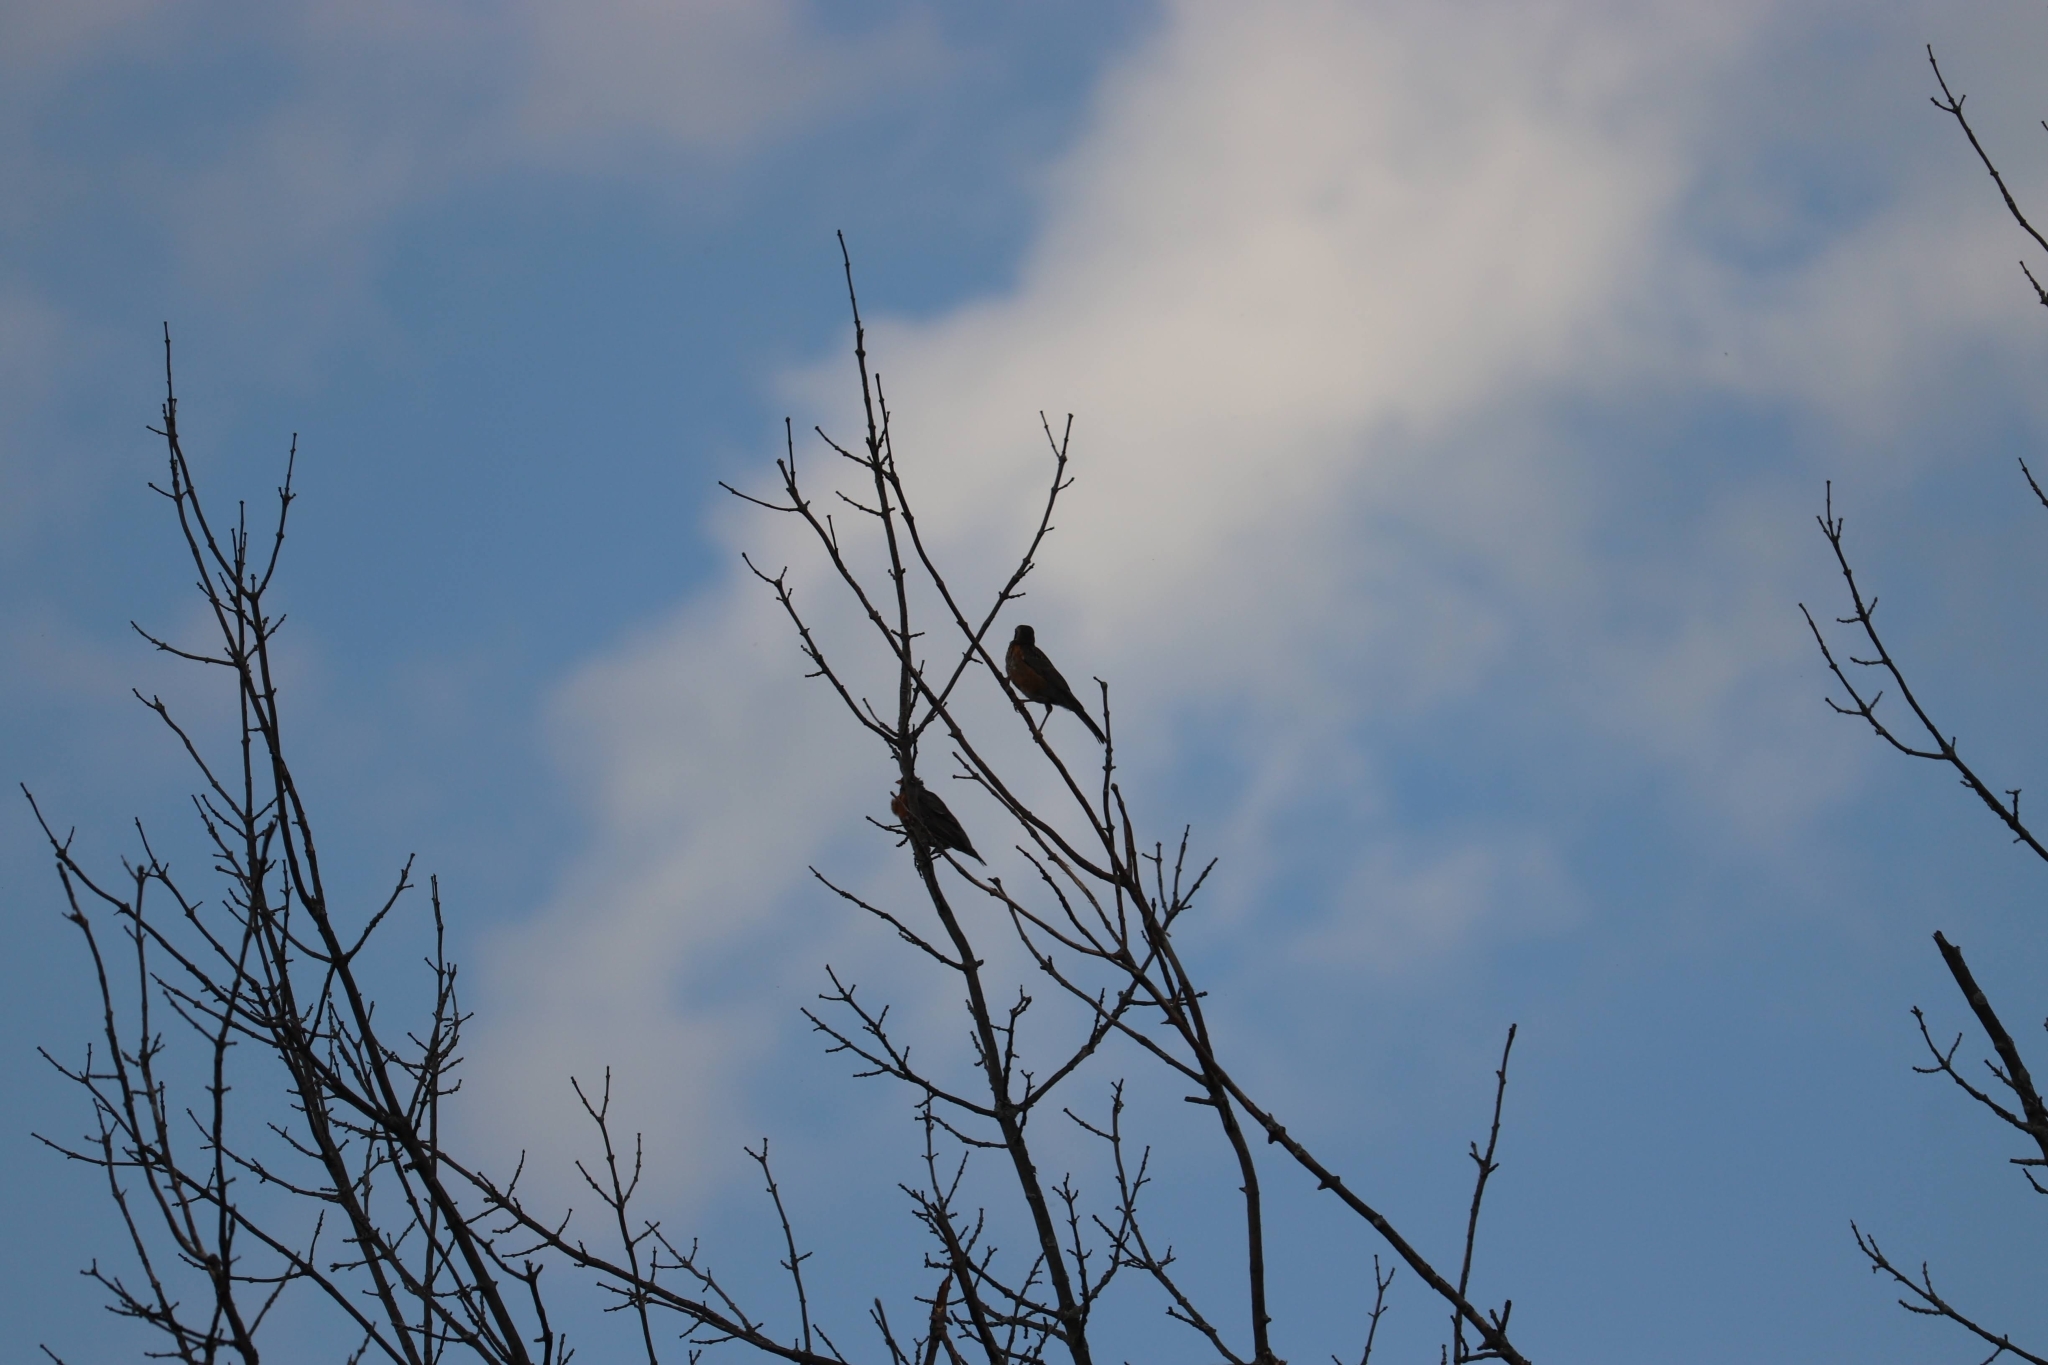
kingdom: Animalia
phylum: Chordata
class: Aves
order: Passeriformes
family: Turdidae
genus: Turdus
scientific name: Turdus migratorius
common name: American robin
